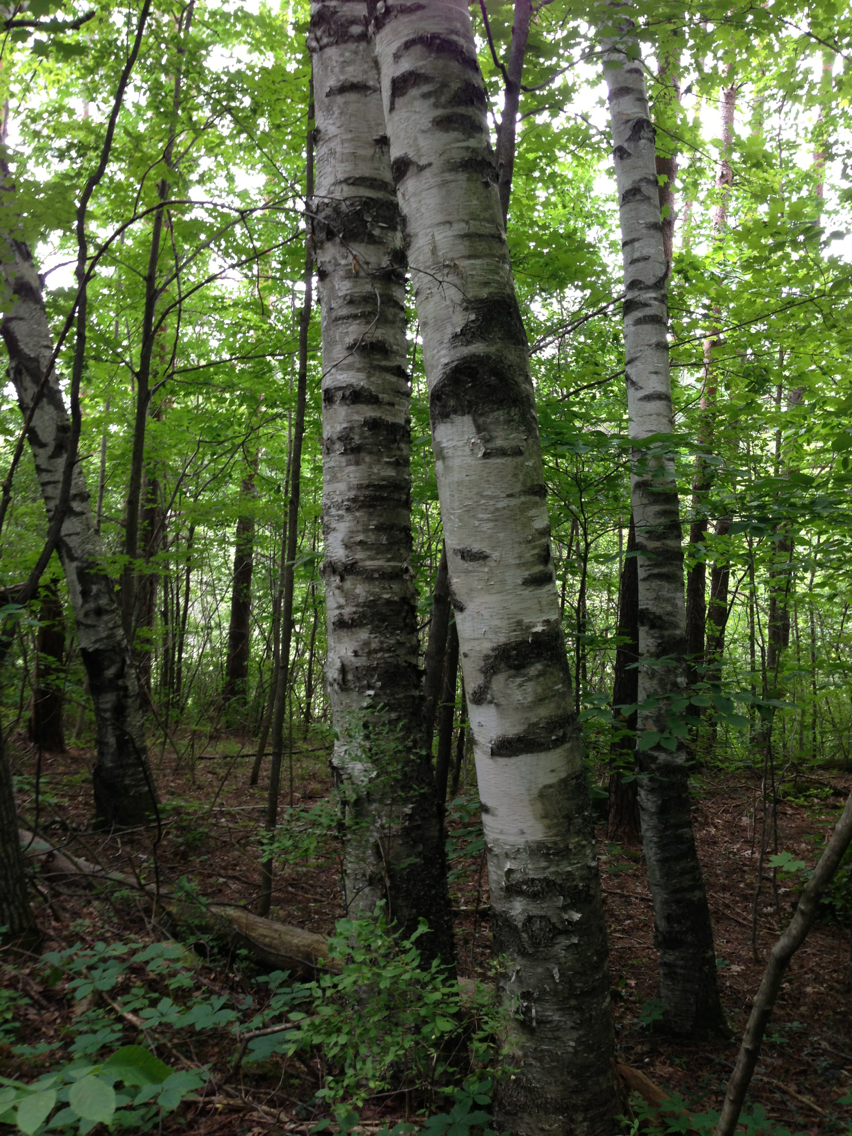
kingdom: Plantae
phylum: Tracheophyta
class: Magnoliopsida
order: Fagales
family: Betulaceae
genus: Betula
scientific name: Betula papyrifera
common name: Paper birch
